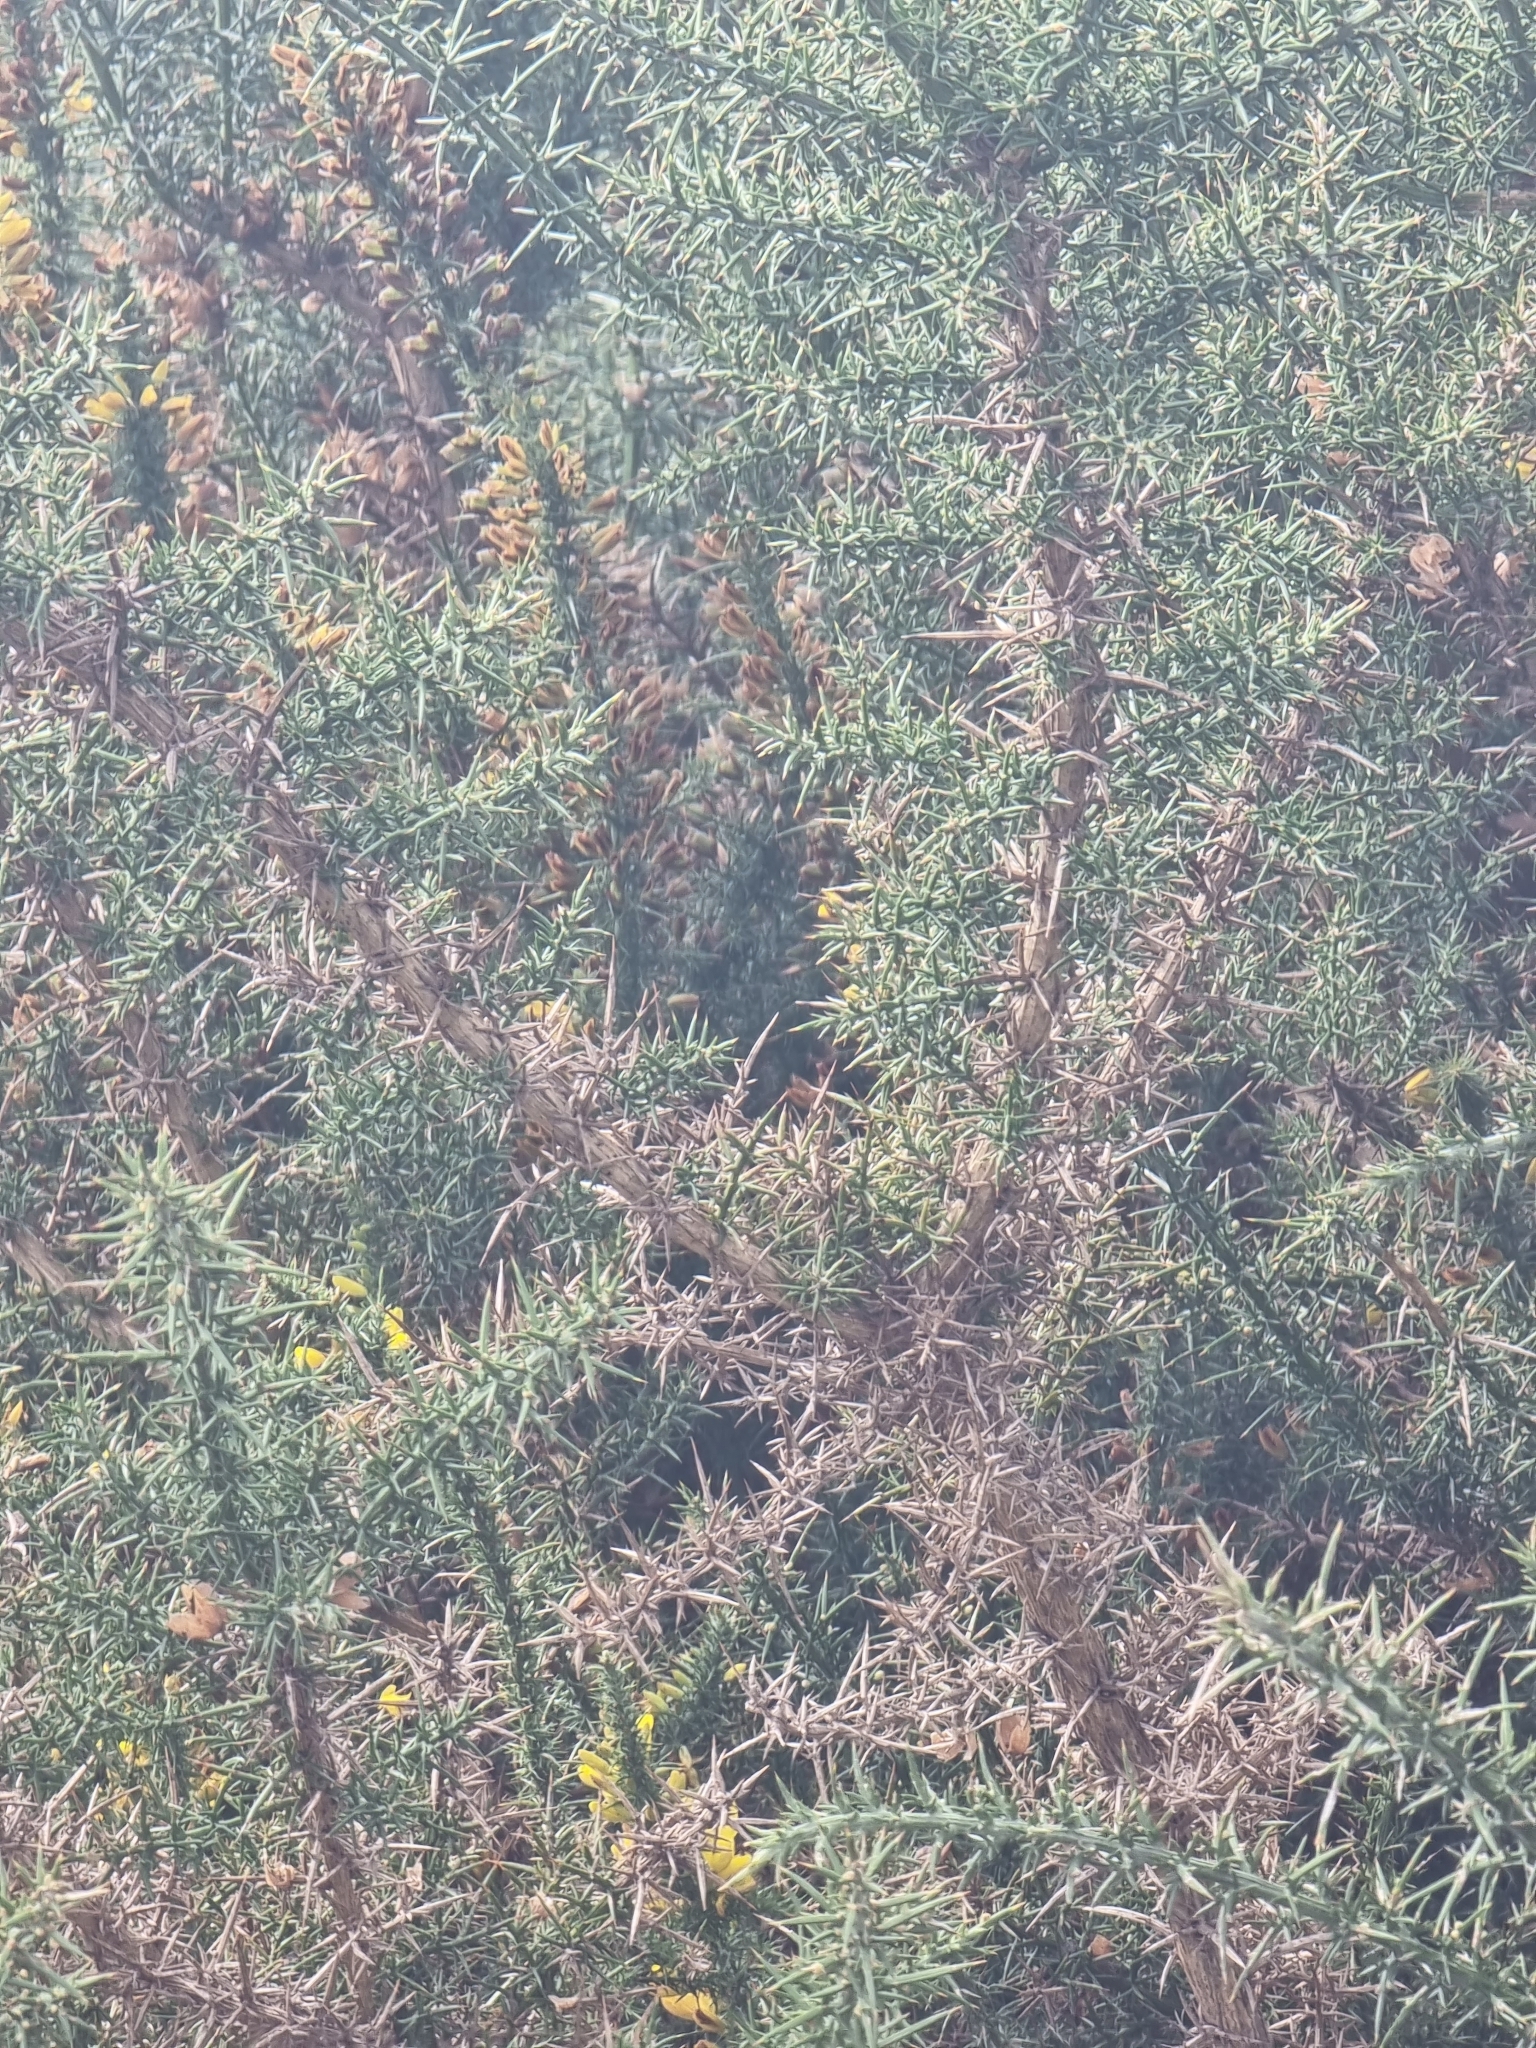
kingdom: Plantae
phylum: Tracheophyta
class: Magnoliopsida
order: Fabales
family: Fabaceae
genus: Ulex
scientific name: Ulex europaeus
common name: Common gorse
